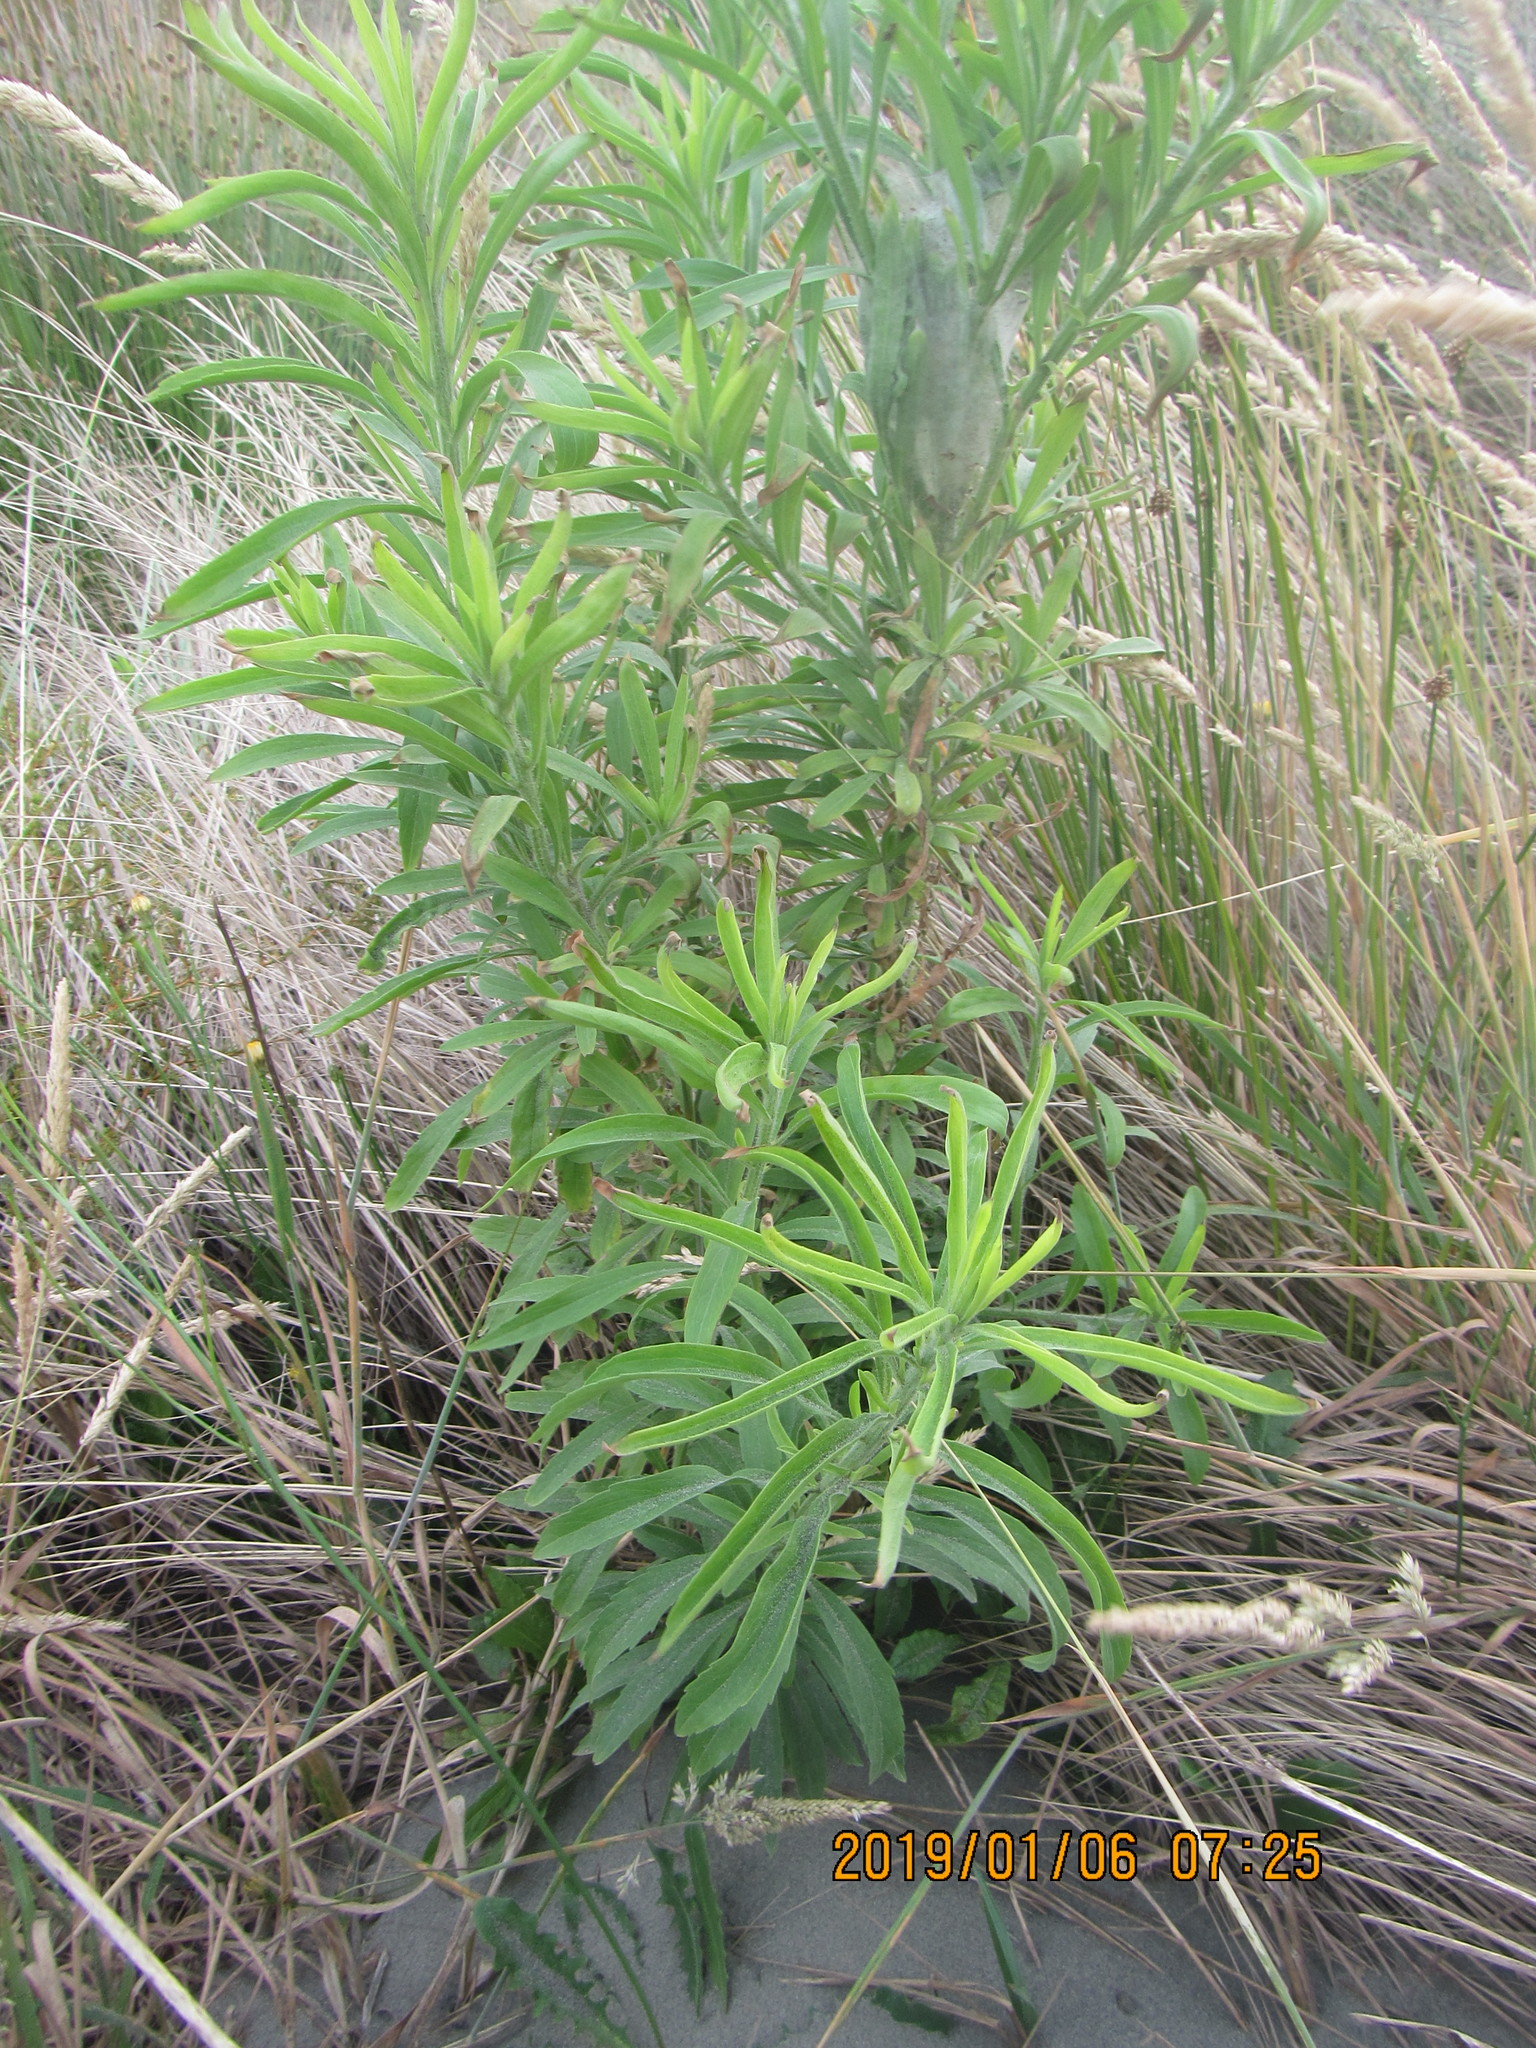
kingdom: Plantae
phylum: Tracheophyta
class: Magnoliopsida
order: Asterales
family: Asteraceae
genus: Erigeron
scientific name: Erigeron sumatrensis
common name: Daisy
